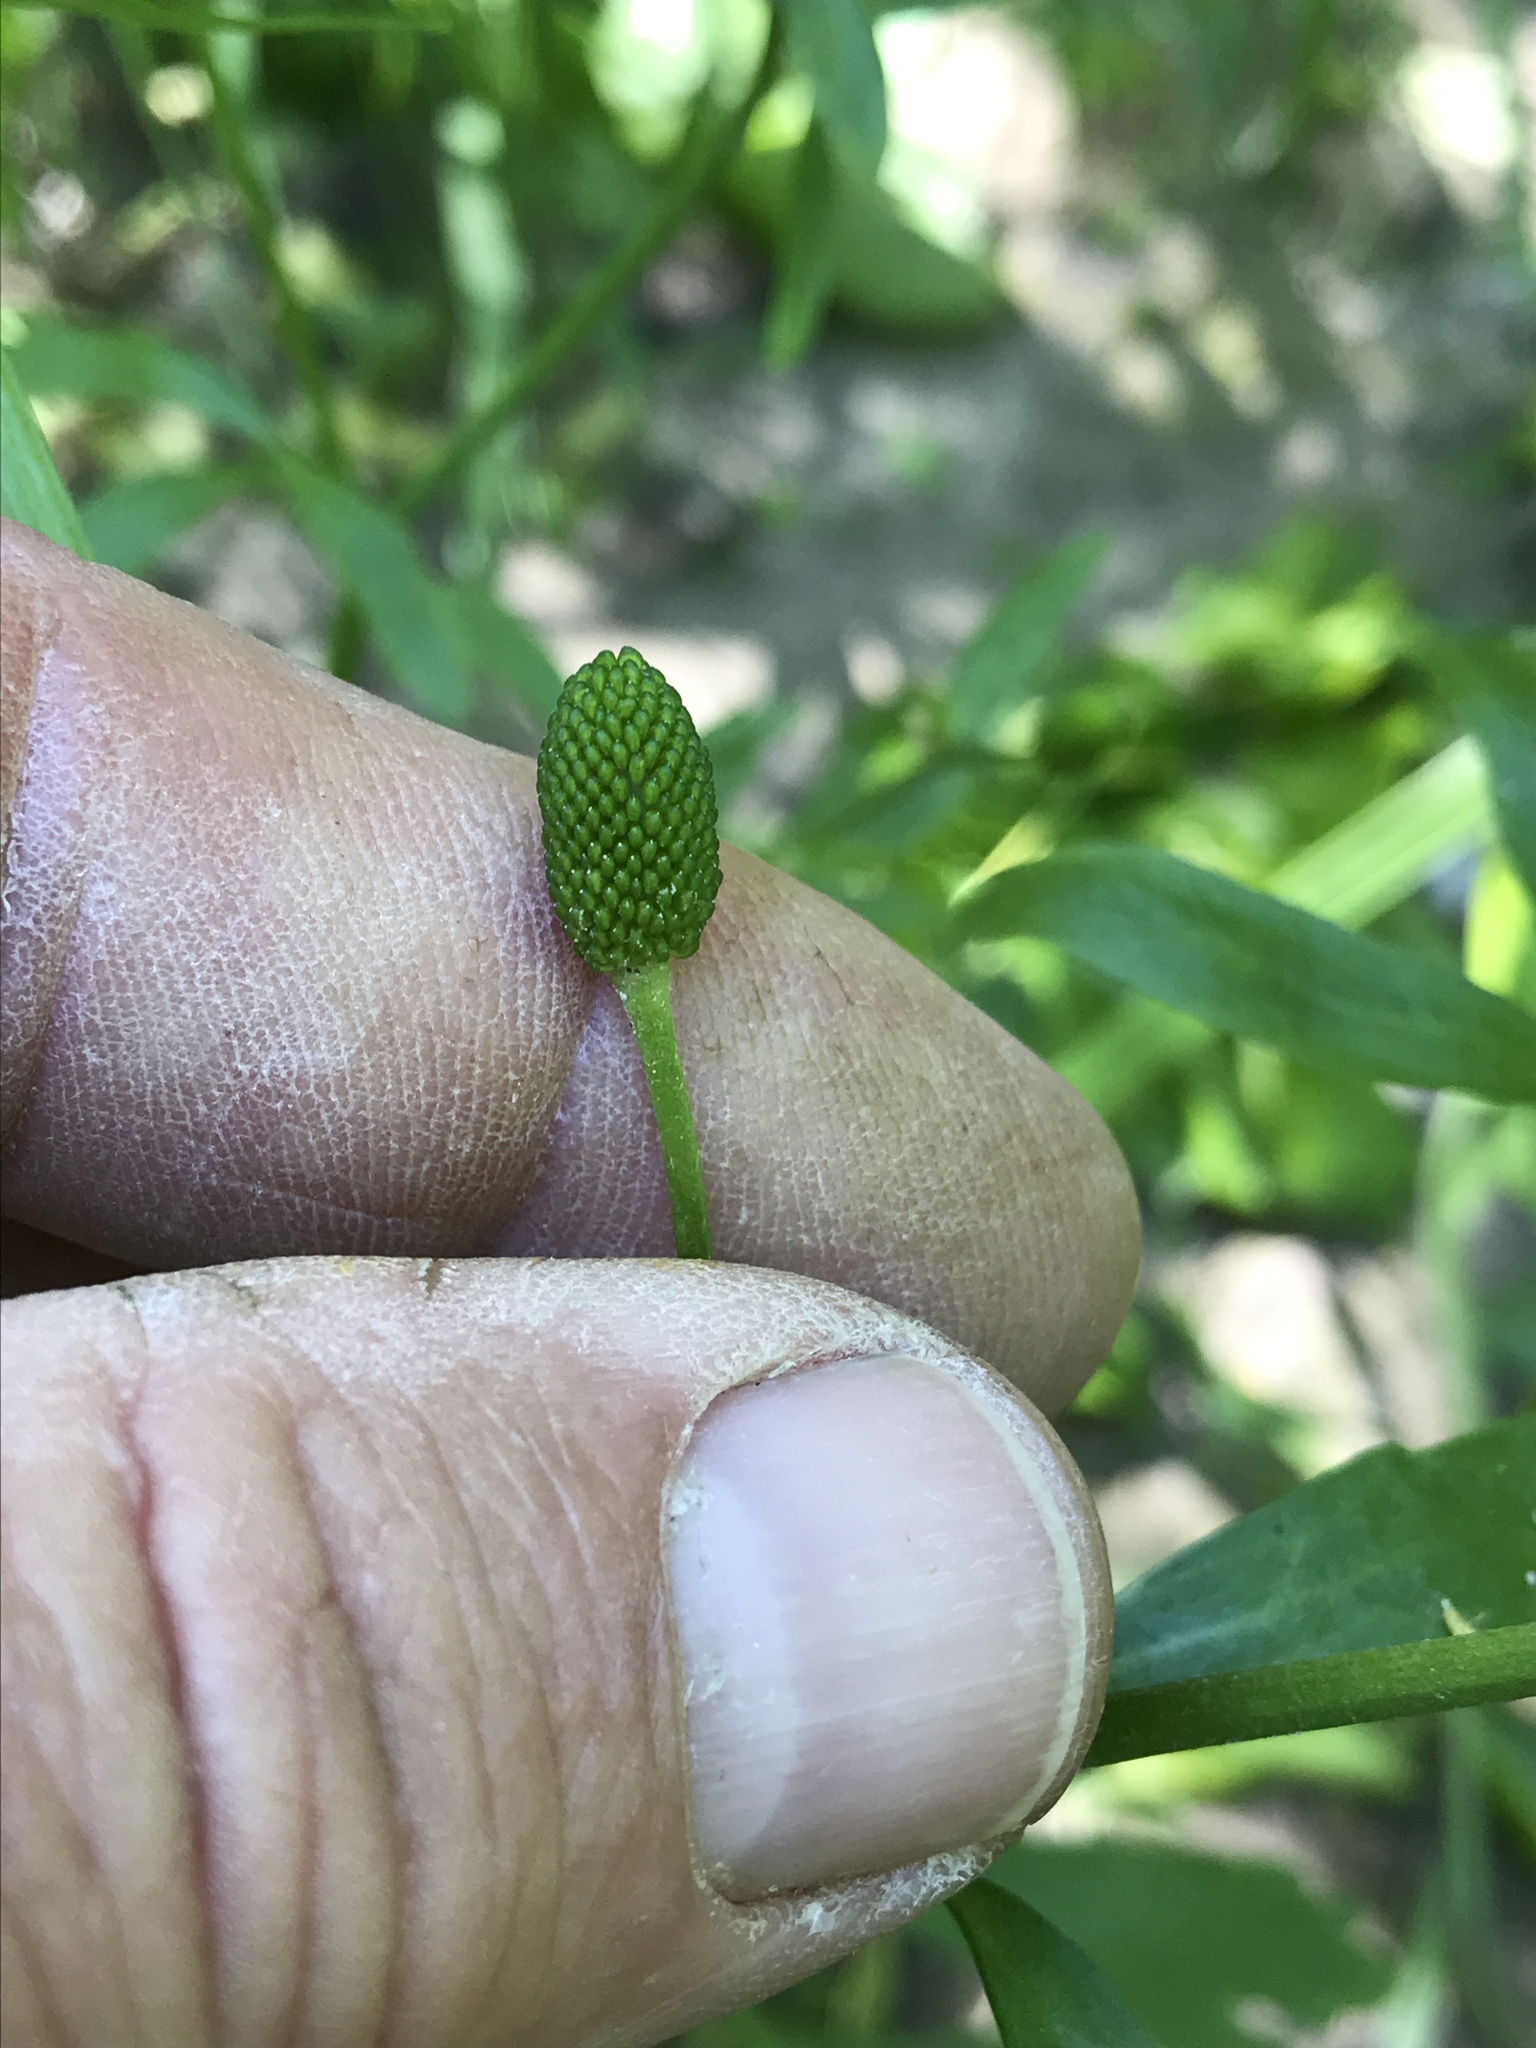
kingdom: Plantae
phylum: Tracheophyta
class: Magnoliopsida
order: Ranunculales
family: Ranunculaceae
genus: Ranunculus
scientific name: Ranunculus sceleratus
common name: Celery-leaved buttercup
